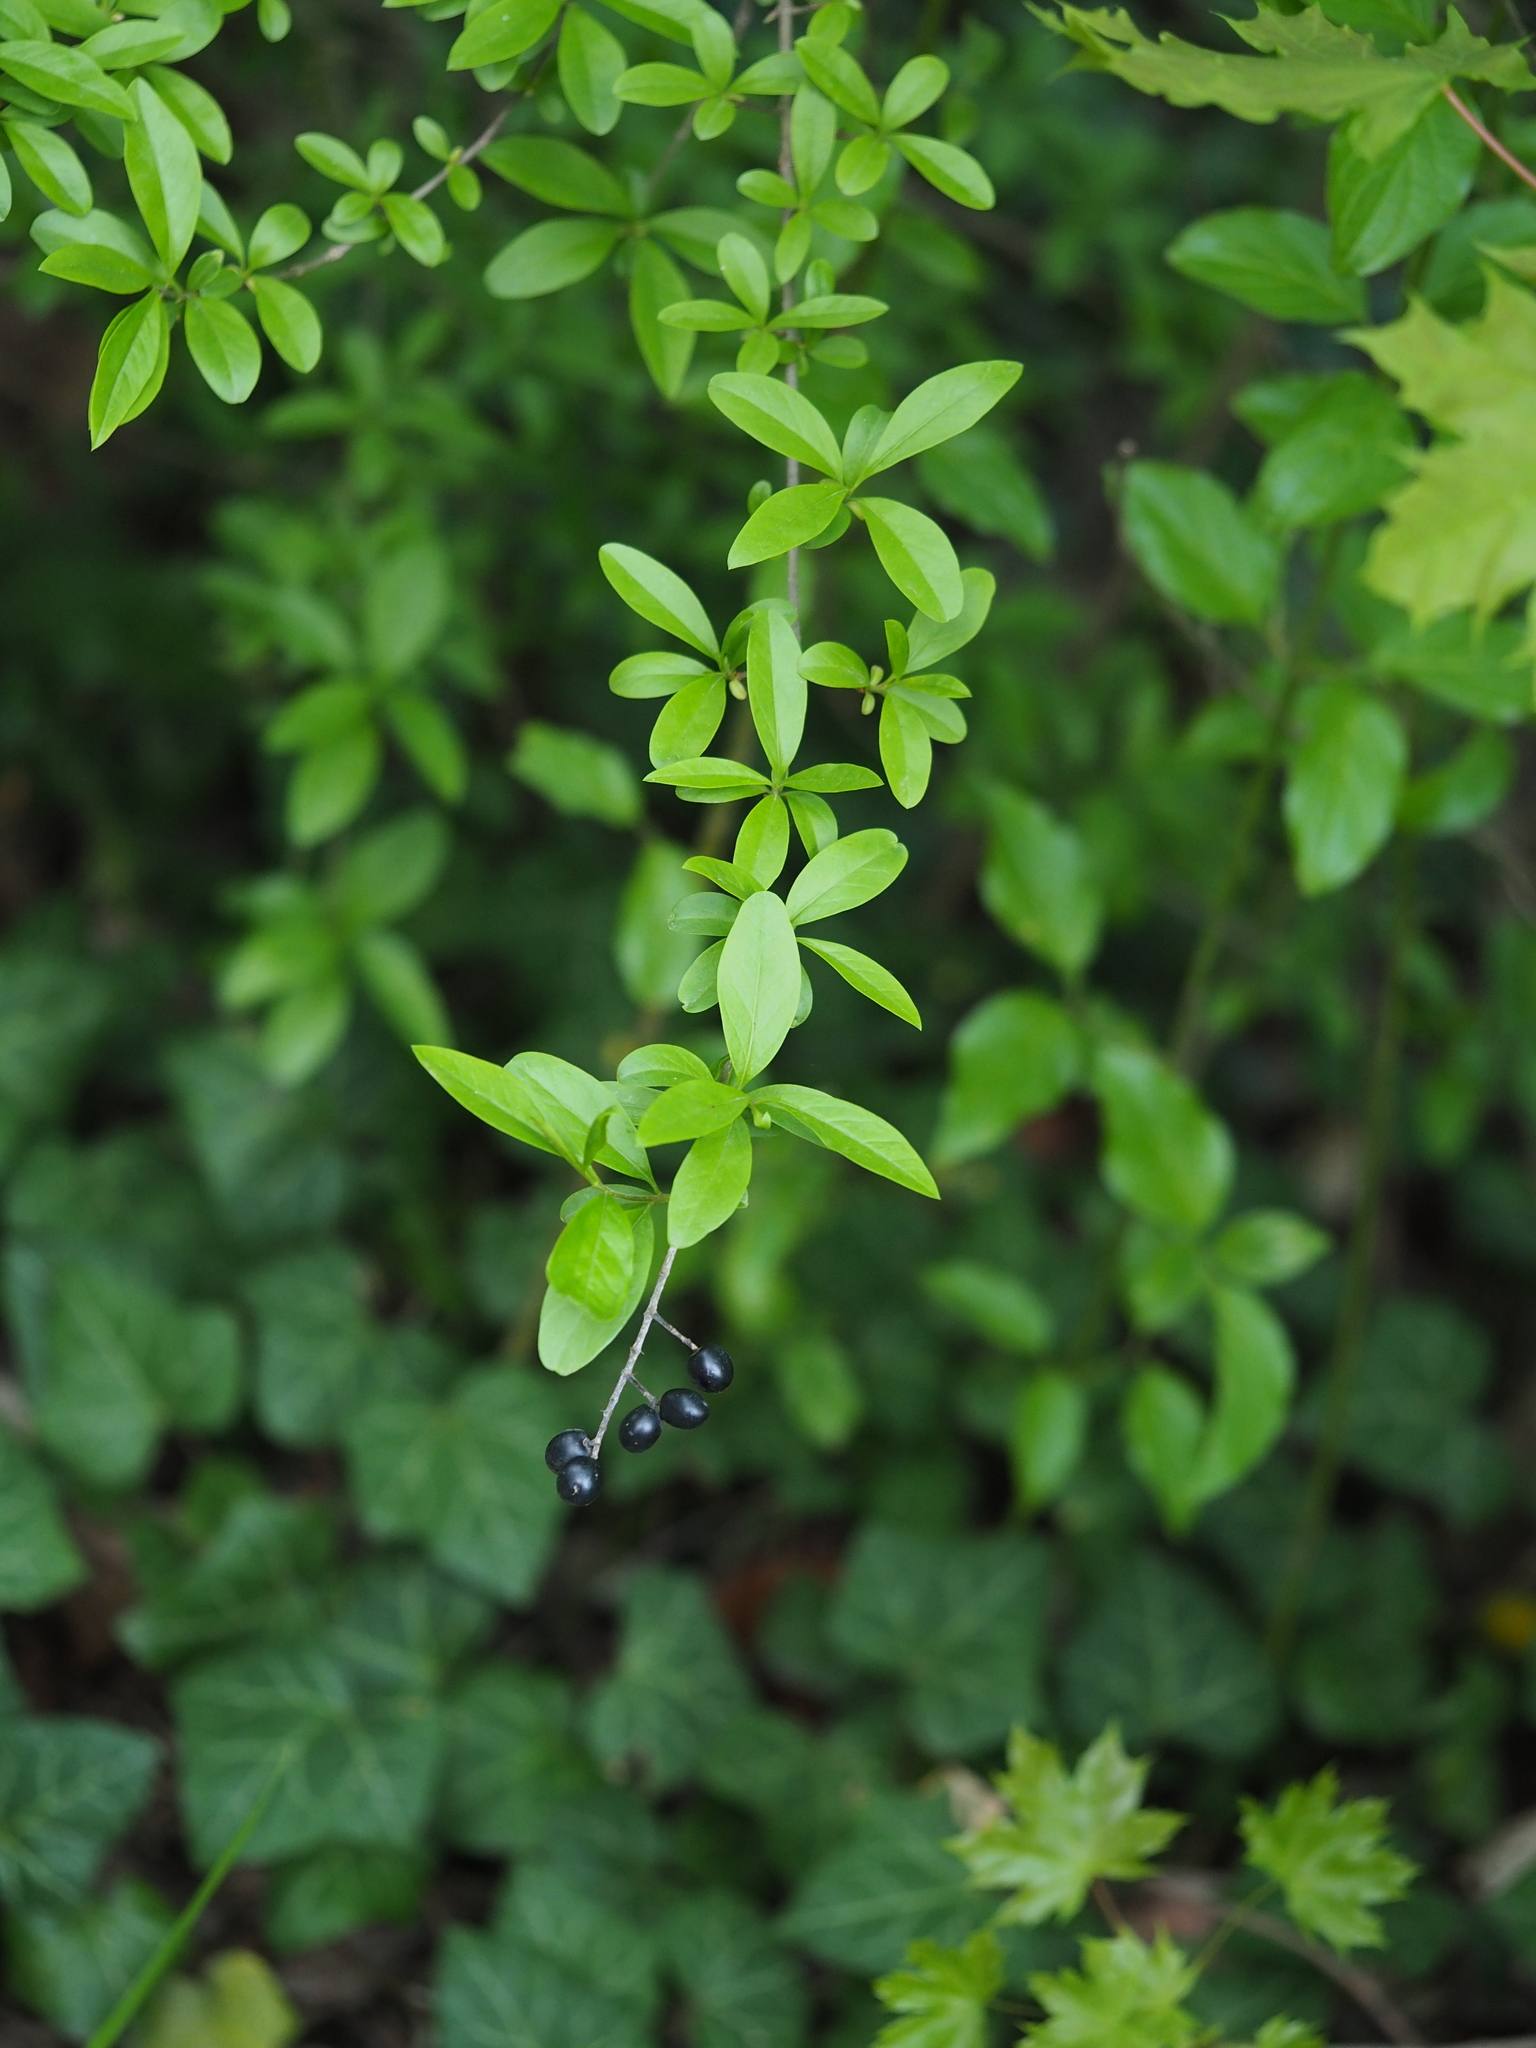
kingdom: Plantae
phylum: Tracheophyta
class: Magnoliopsida
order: Lamiales
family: Oleaceae
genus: Ligustrum
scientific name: Ligustrum vulgare
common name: Wild privet
